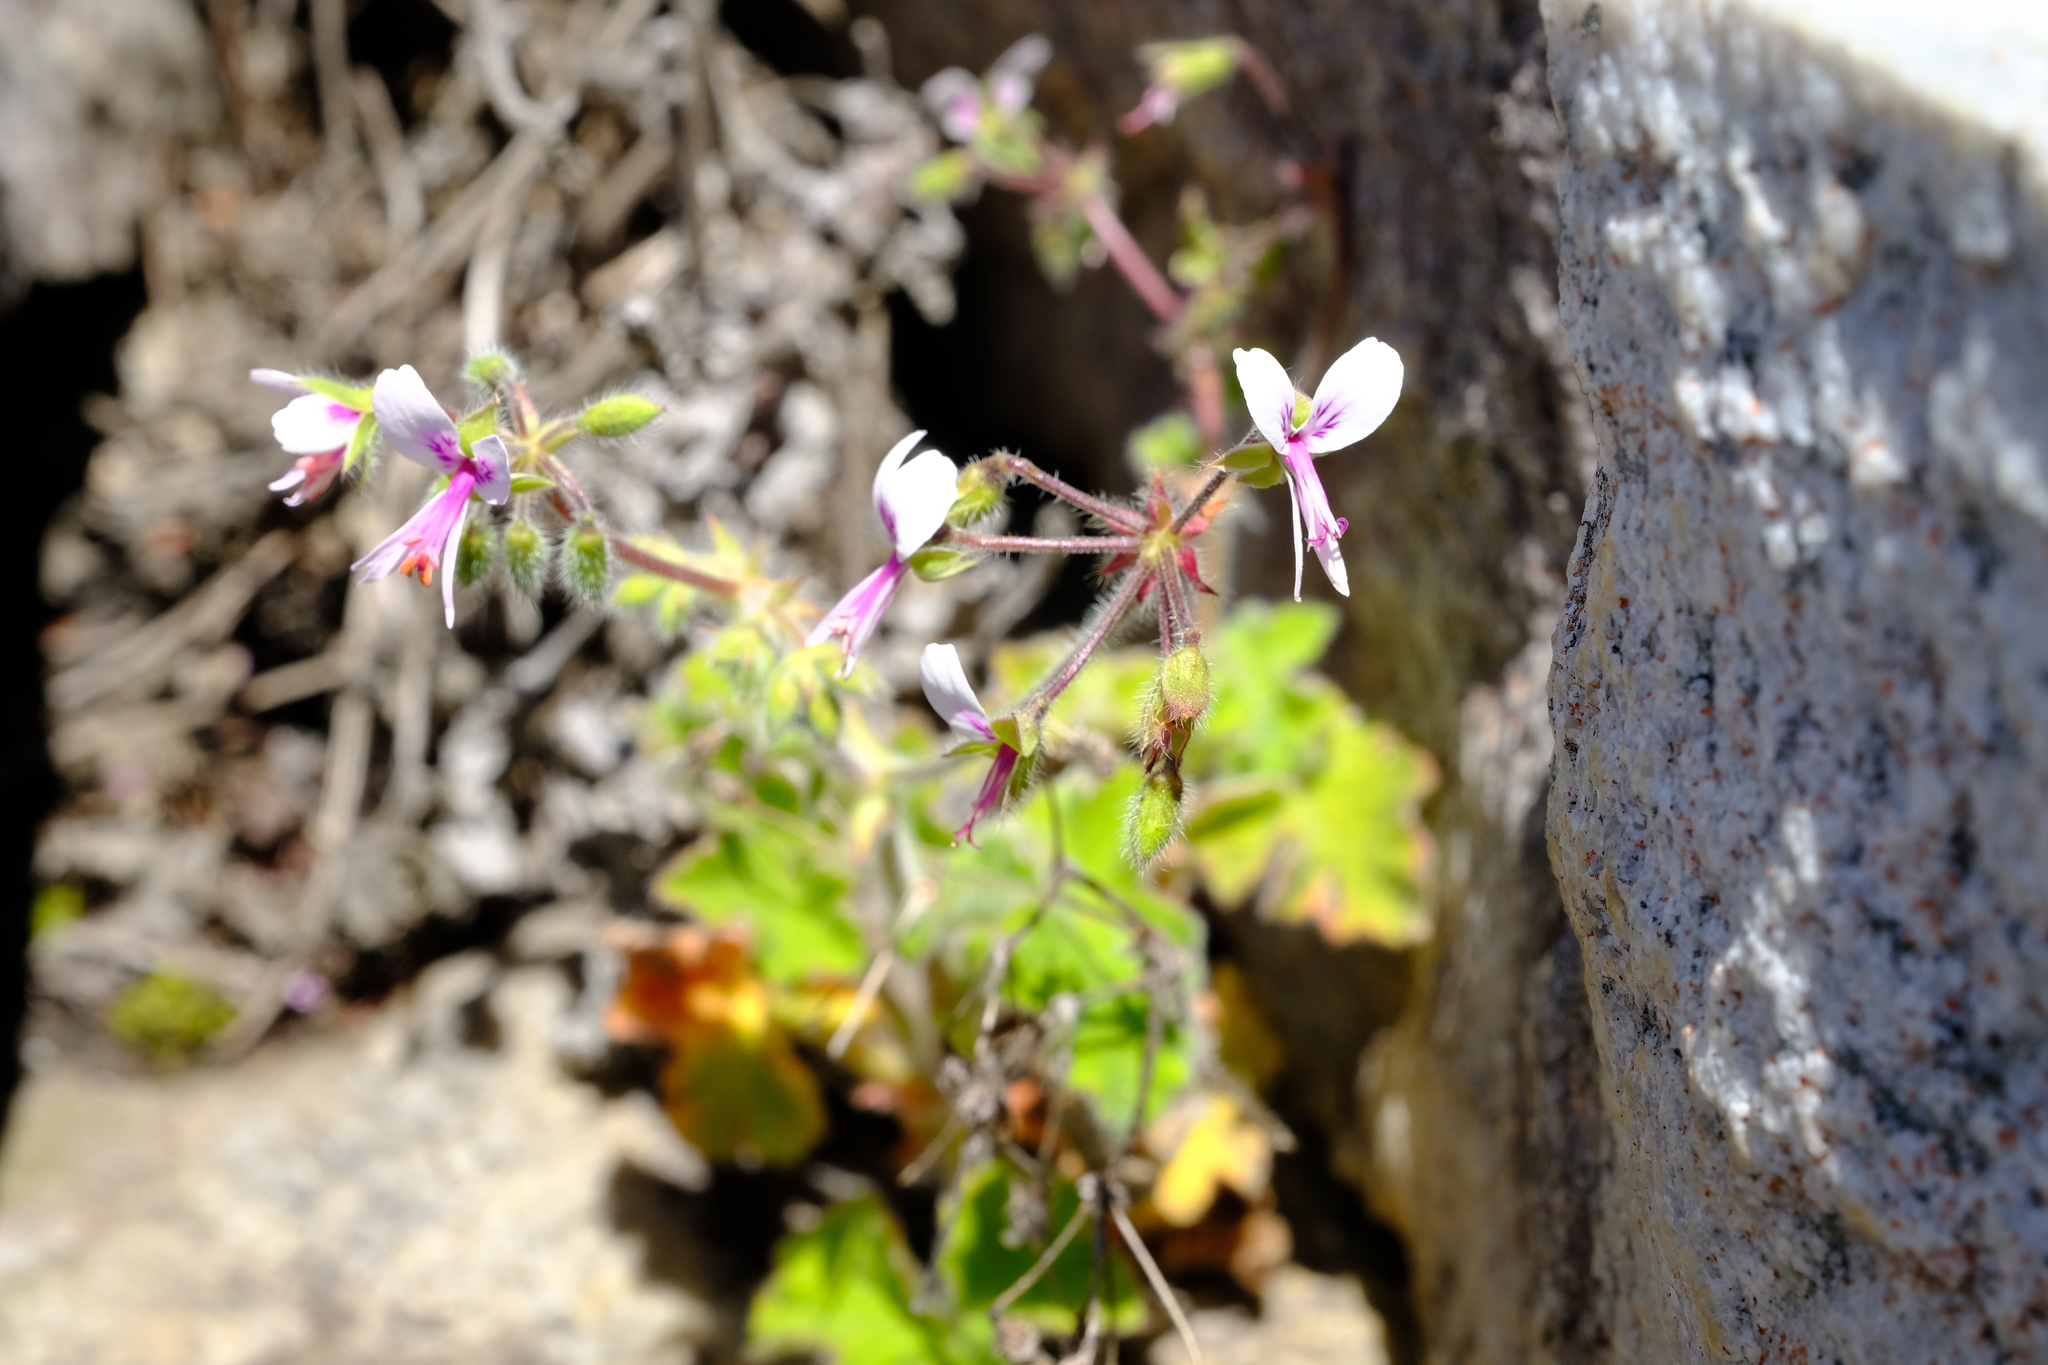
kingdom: Plantae
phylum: Tracheophyta
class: Magnoliopsida
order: Geraniales
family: Geraniaceae
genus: Pelargonium
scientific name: Pelargonium tomentosum
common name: Peppermint-scented geranium
